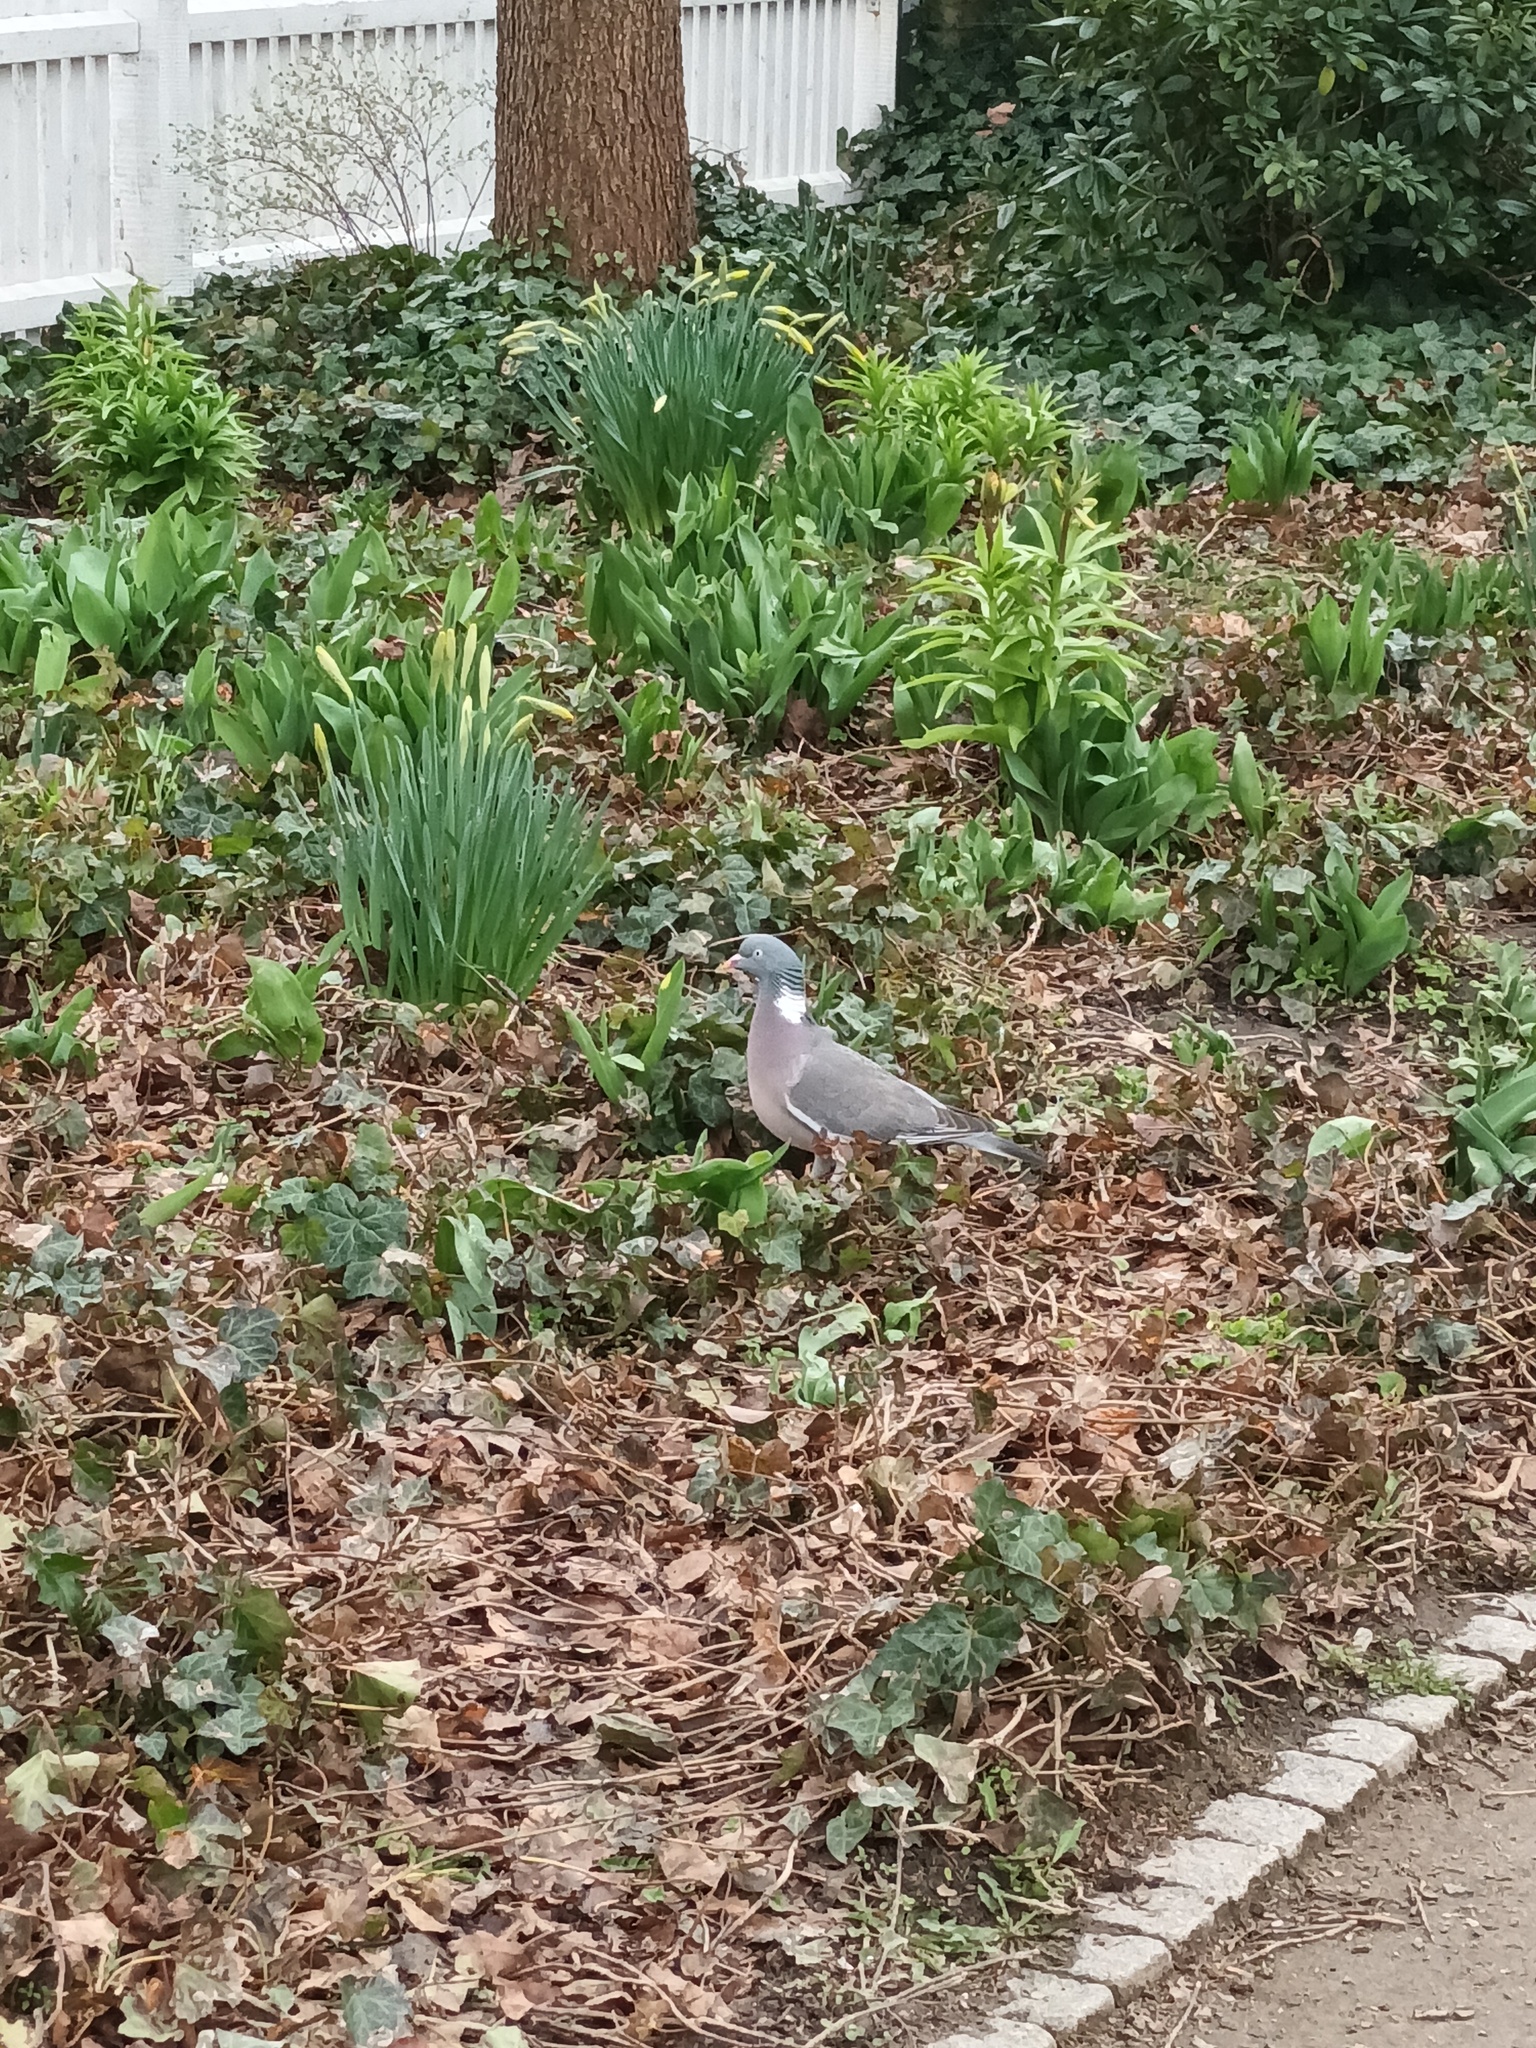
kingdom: Animalia
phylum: Chordata
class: Aves
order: Columbiformes
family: Columbidae
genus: Columba
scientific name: Columba palumbus
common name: Common wood pigeon
